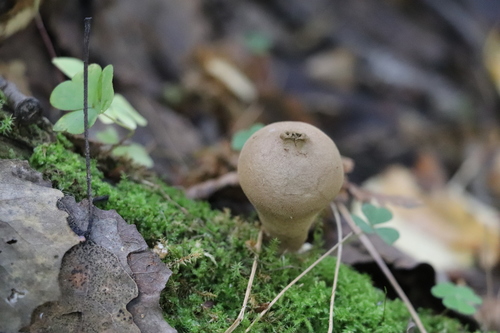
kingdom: Fungi
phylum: Basidiomycota
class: Agaricomycetes
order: Agaricales
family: Lycoperdaceae
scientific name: Lycoperdaceae
